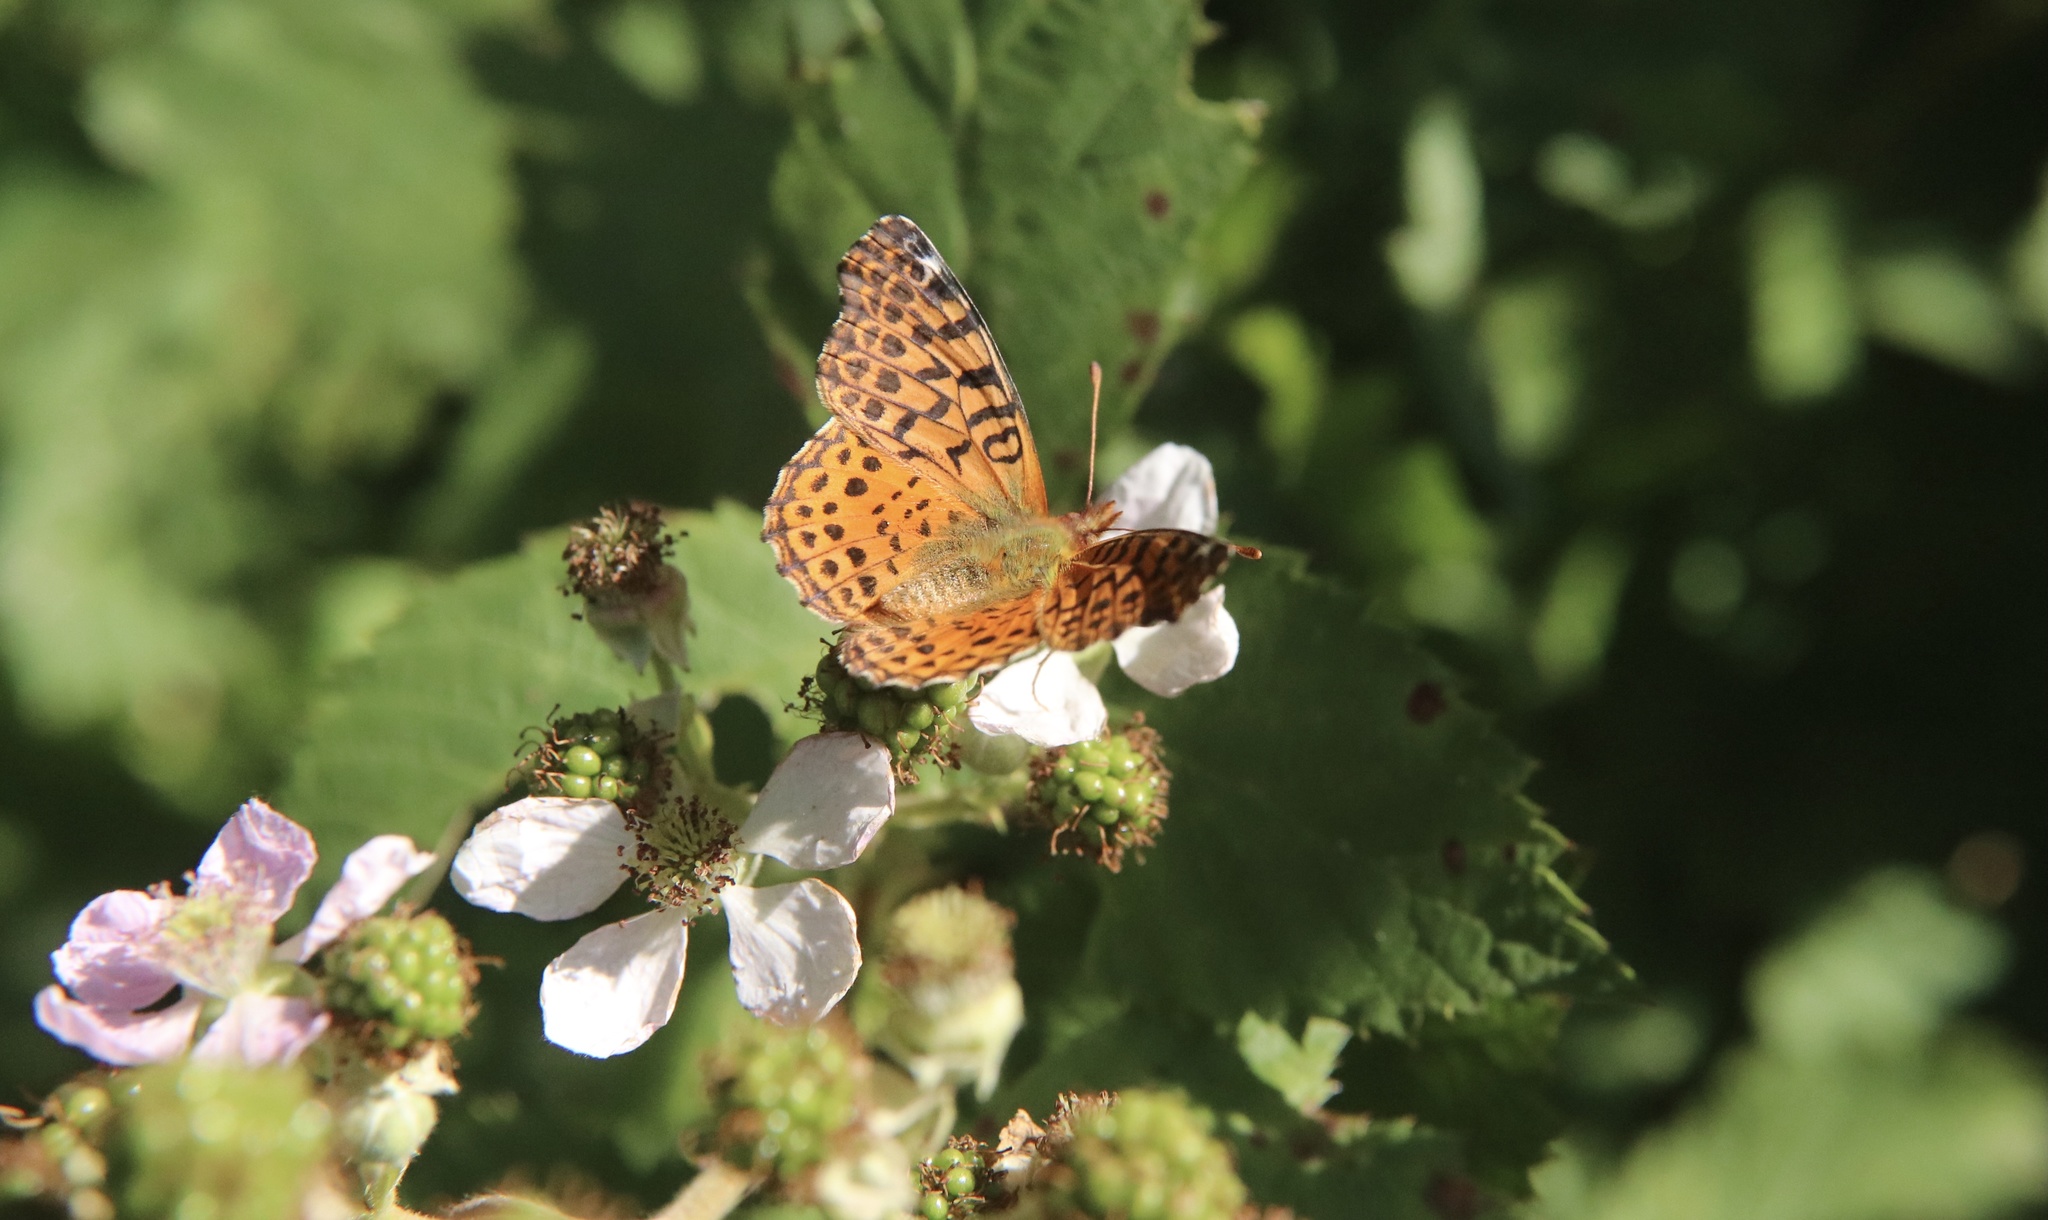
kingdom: Animalia
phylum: Arthropoda
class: Insecta
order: Lepidoptera
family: Nymphalidae
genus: Issoria
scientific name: Issoria Yramea cytheris
